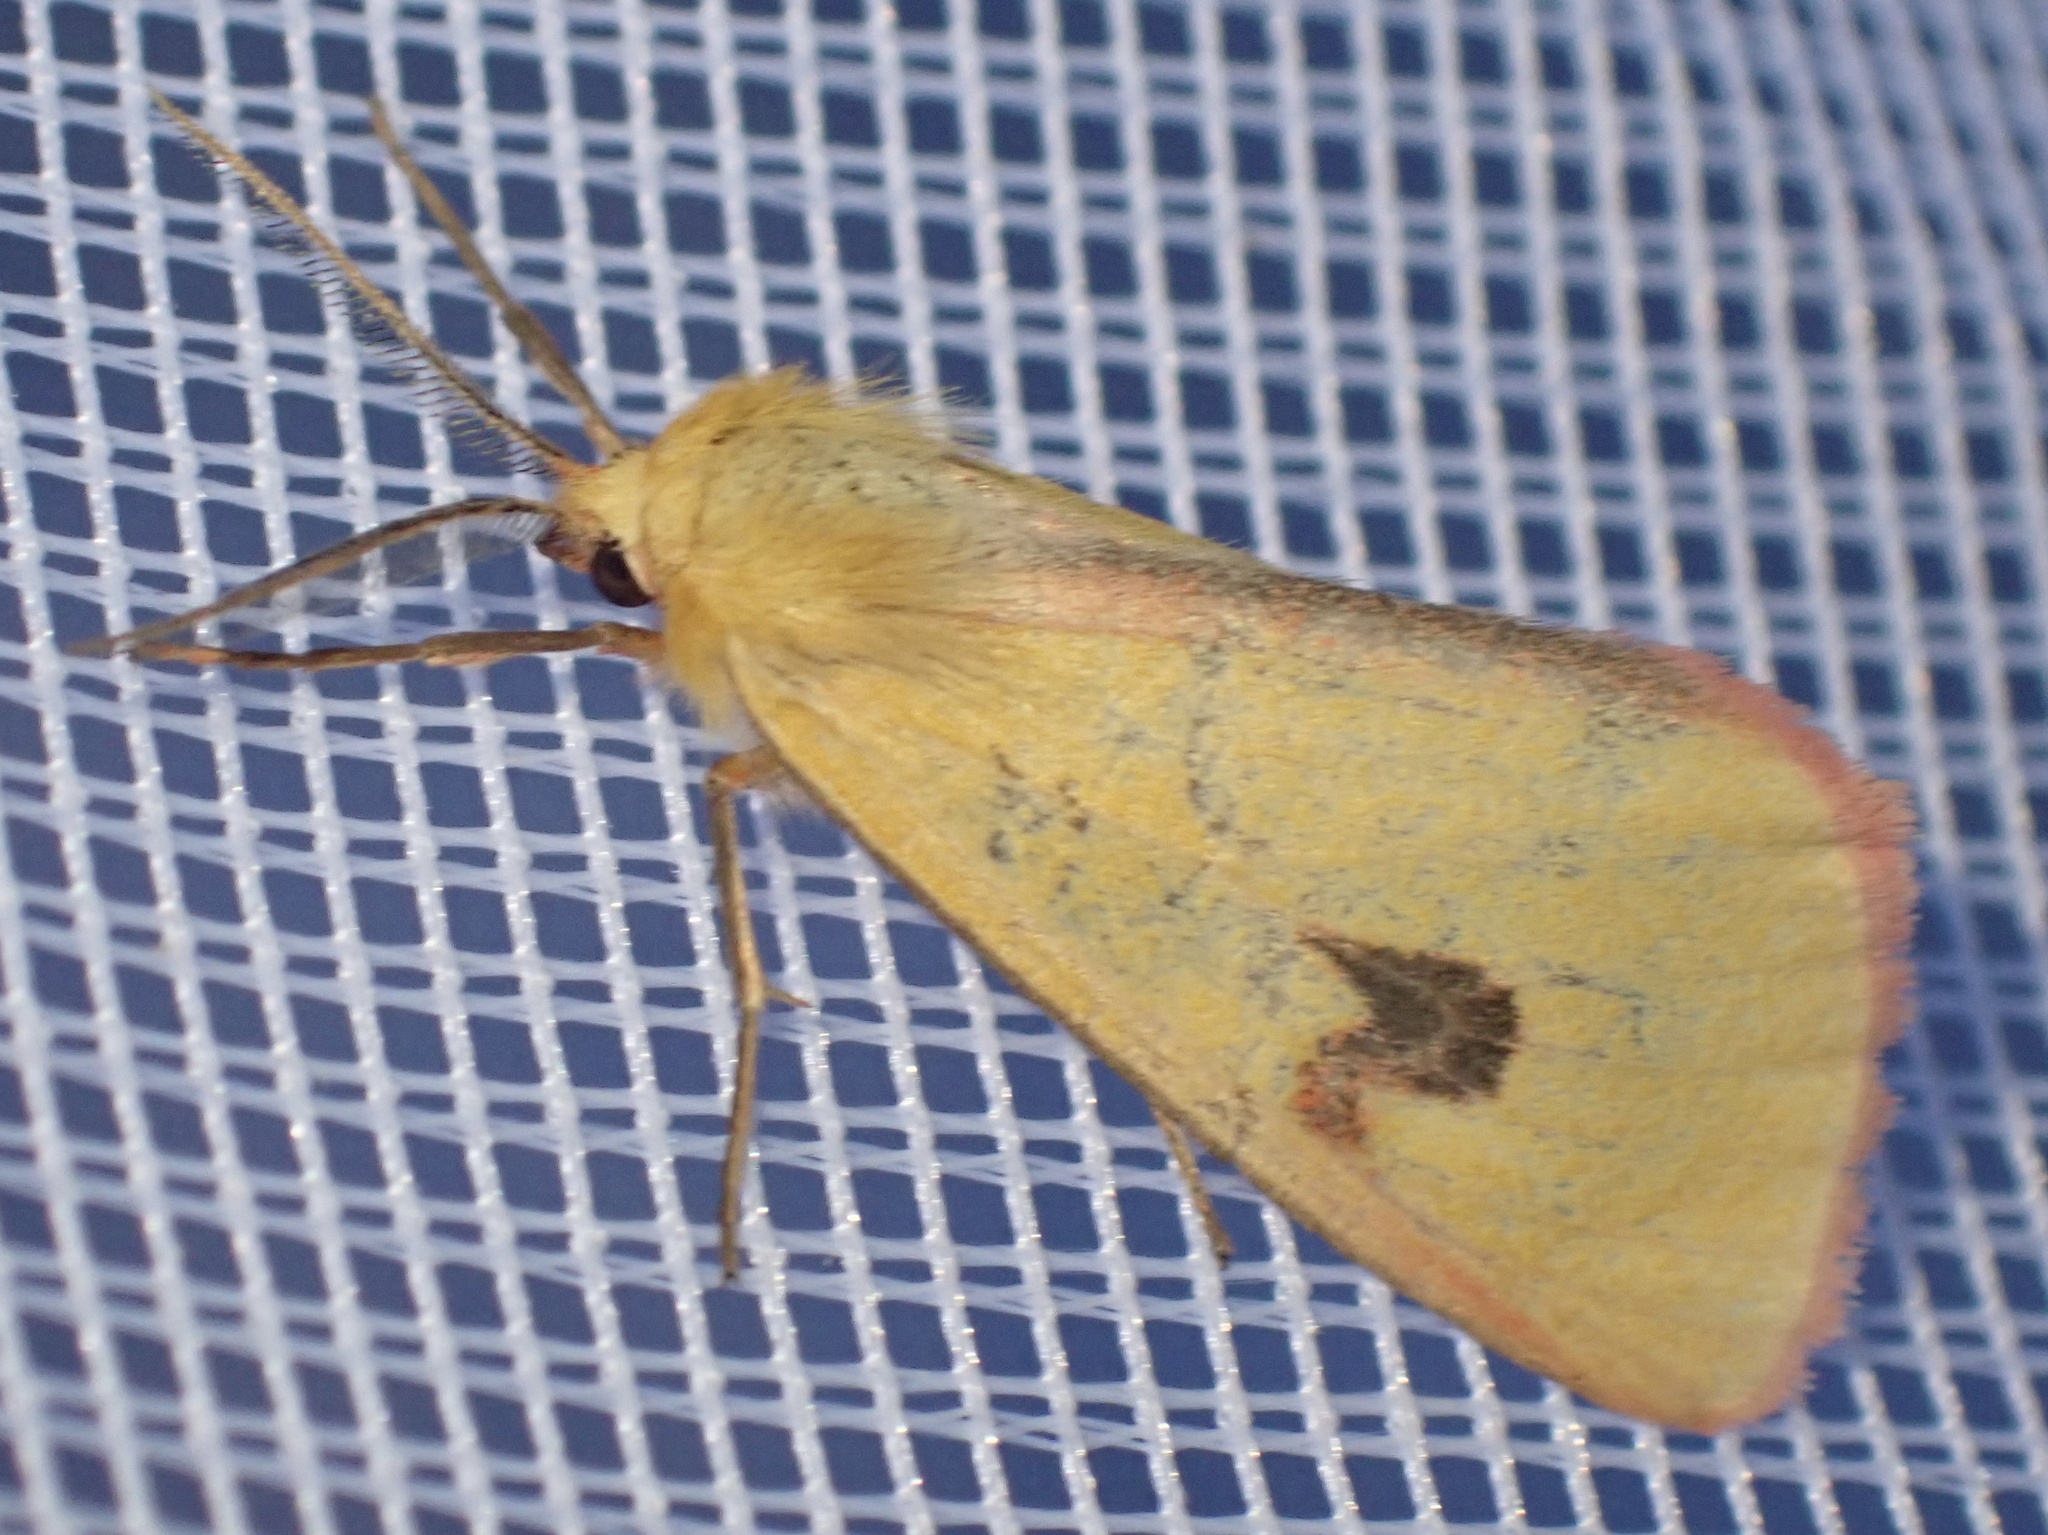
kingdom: Animalia
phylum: Arthropoda
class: Insecta
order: Lepidoptera
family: Erebidae
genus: Diacrisia
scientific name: Diacrisia sannio
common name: Clouded buff
